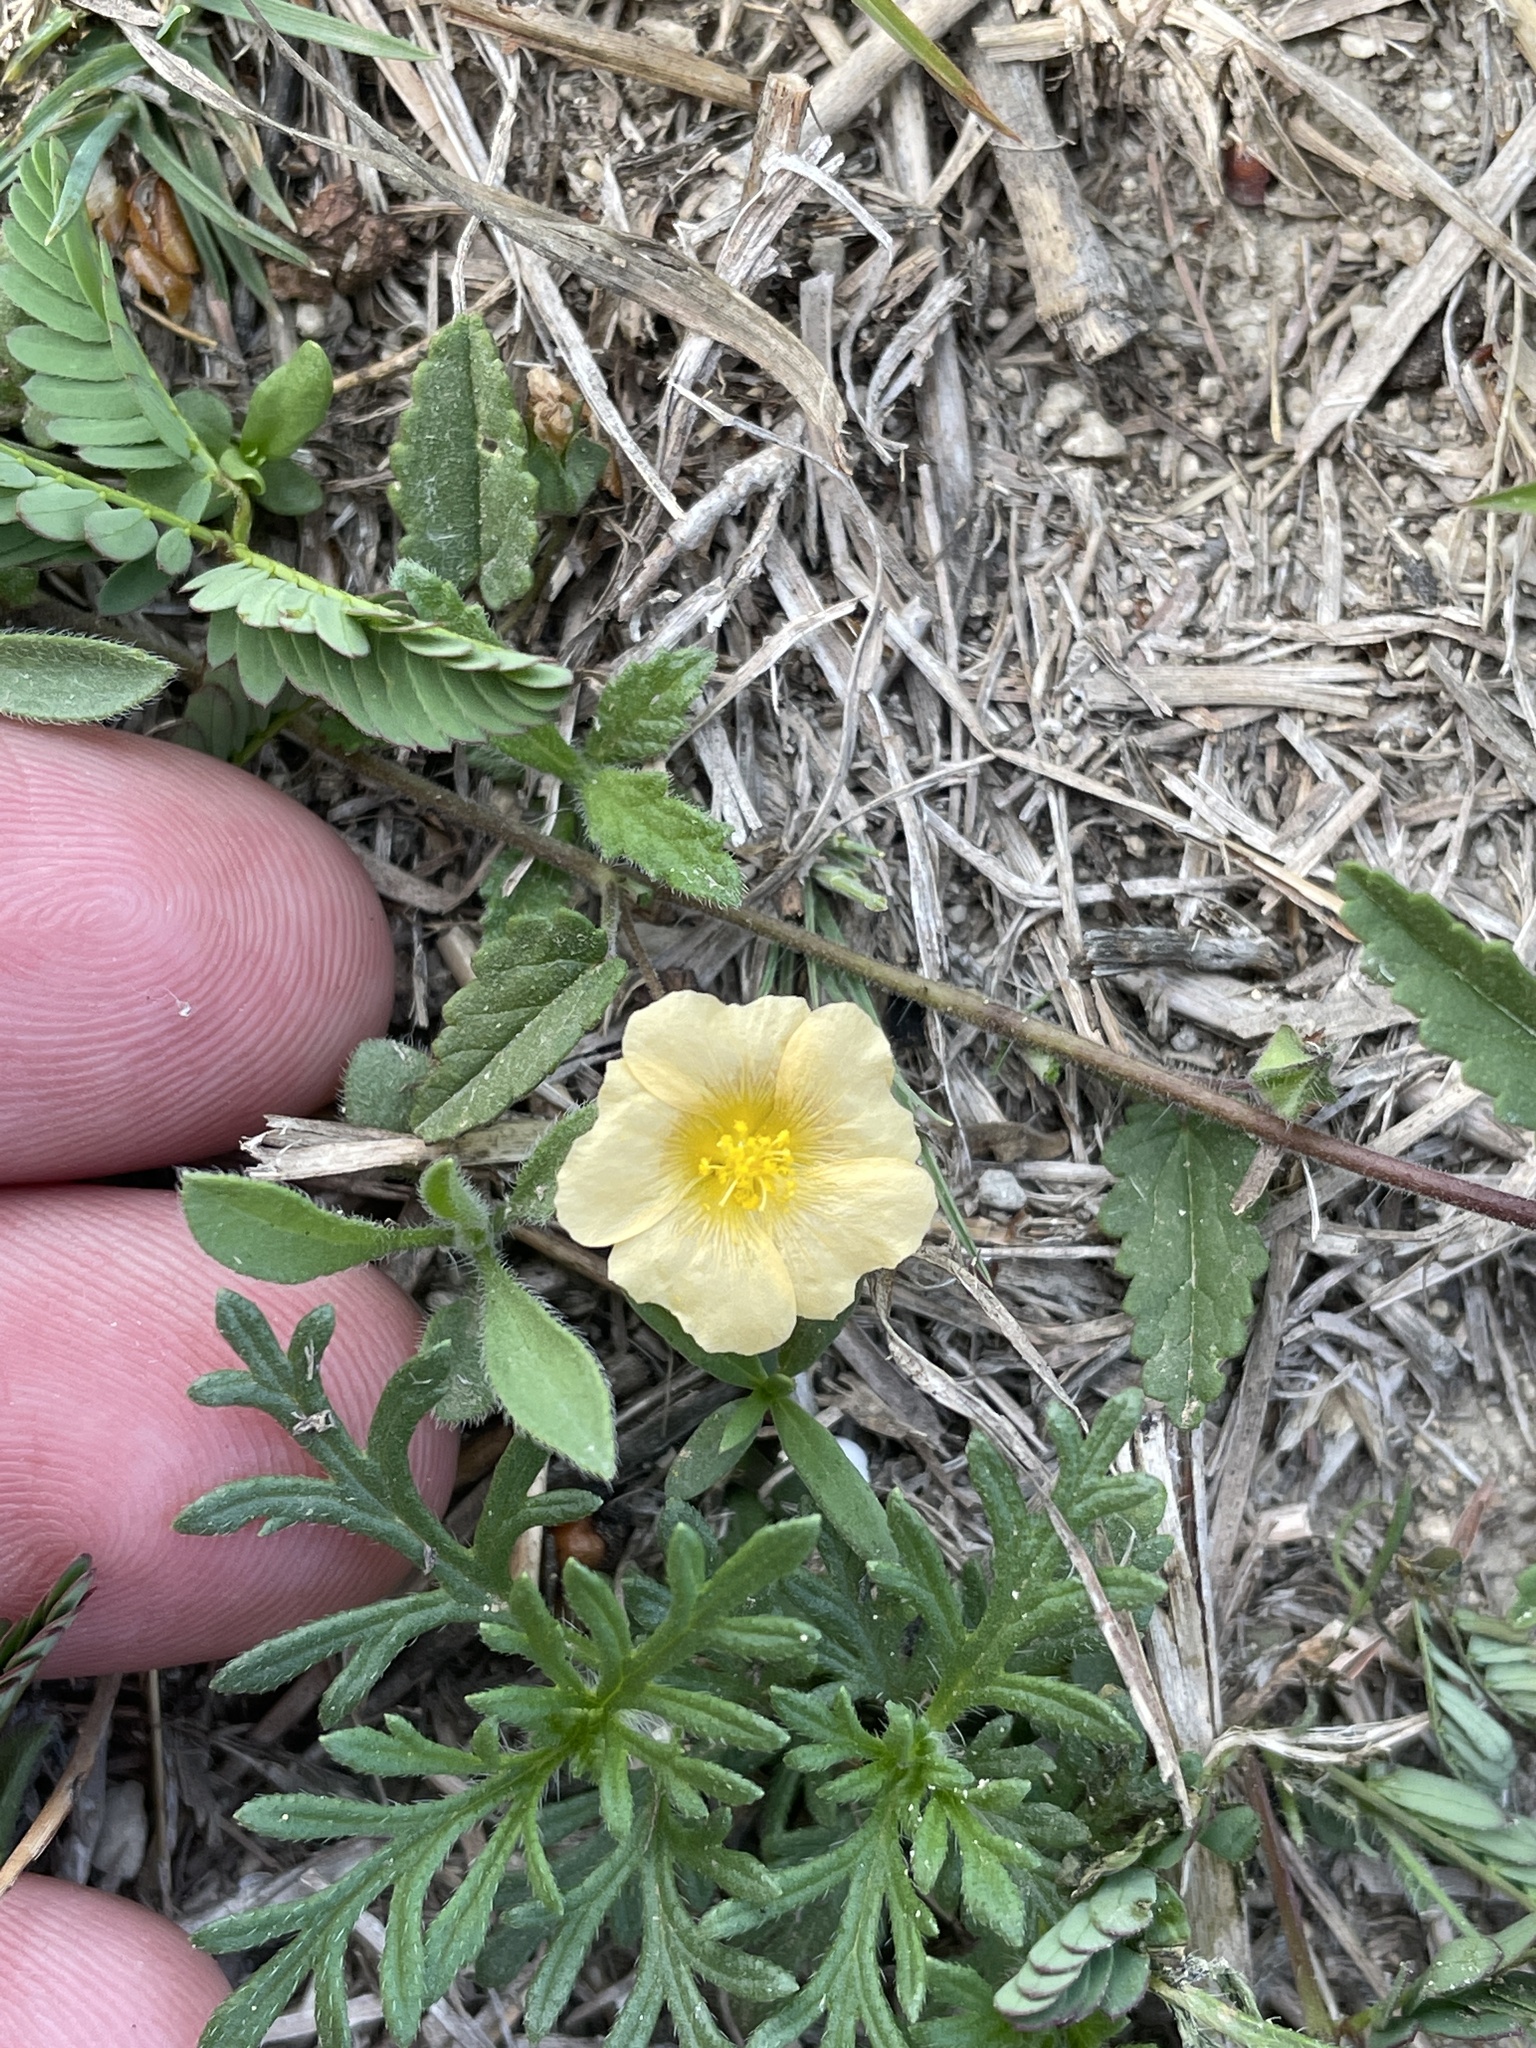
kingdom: Plantae
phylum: Tracheophyta
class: Magnoliopsida
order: Malvales
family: Malvaceae
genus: Sida
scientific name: Sida abutilifolia
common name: Spreading fanpetals
